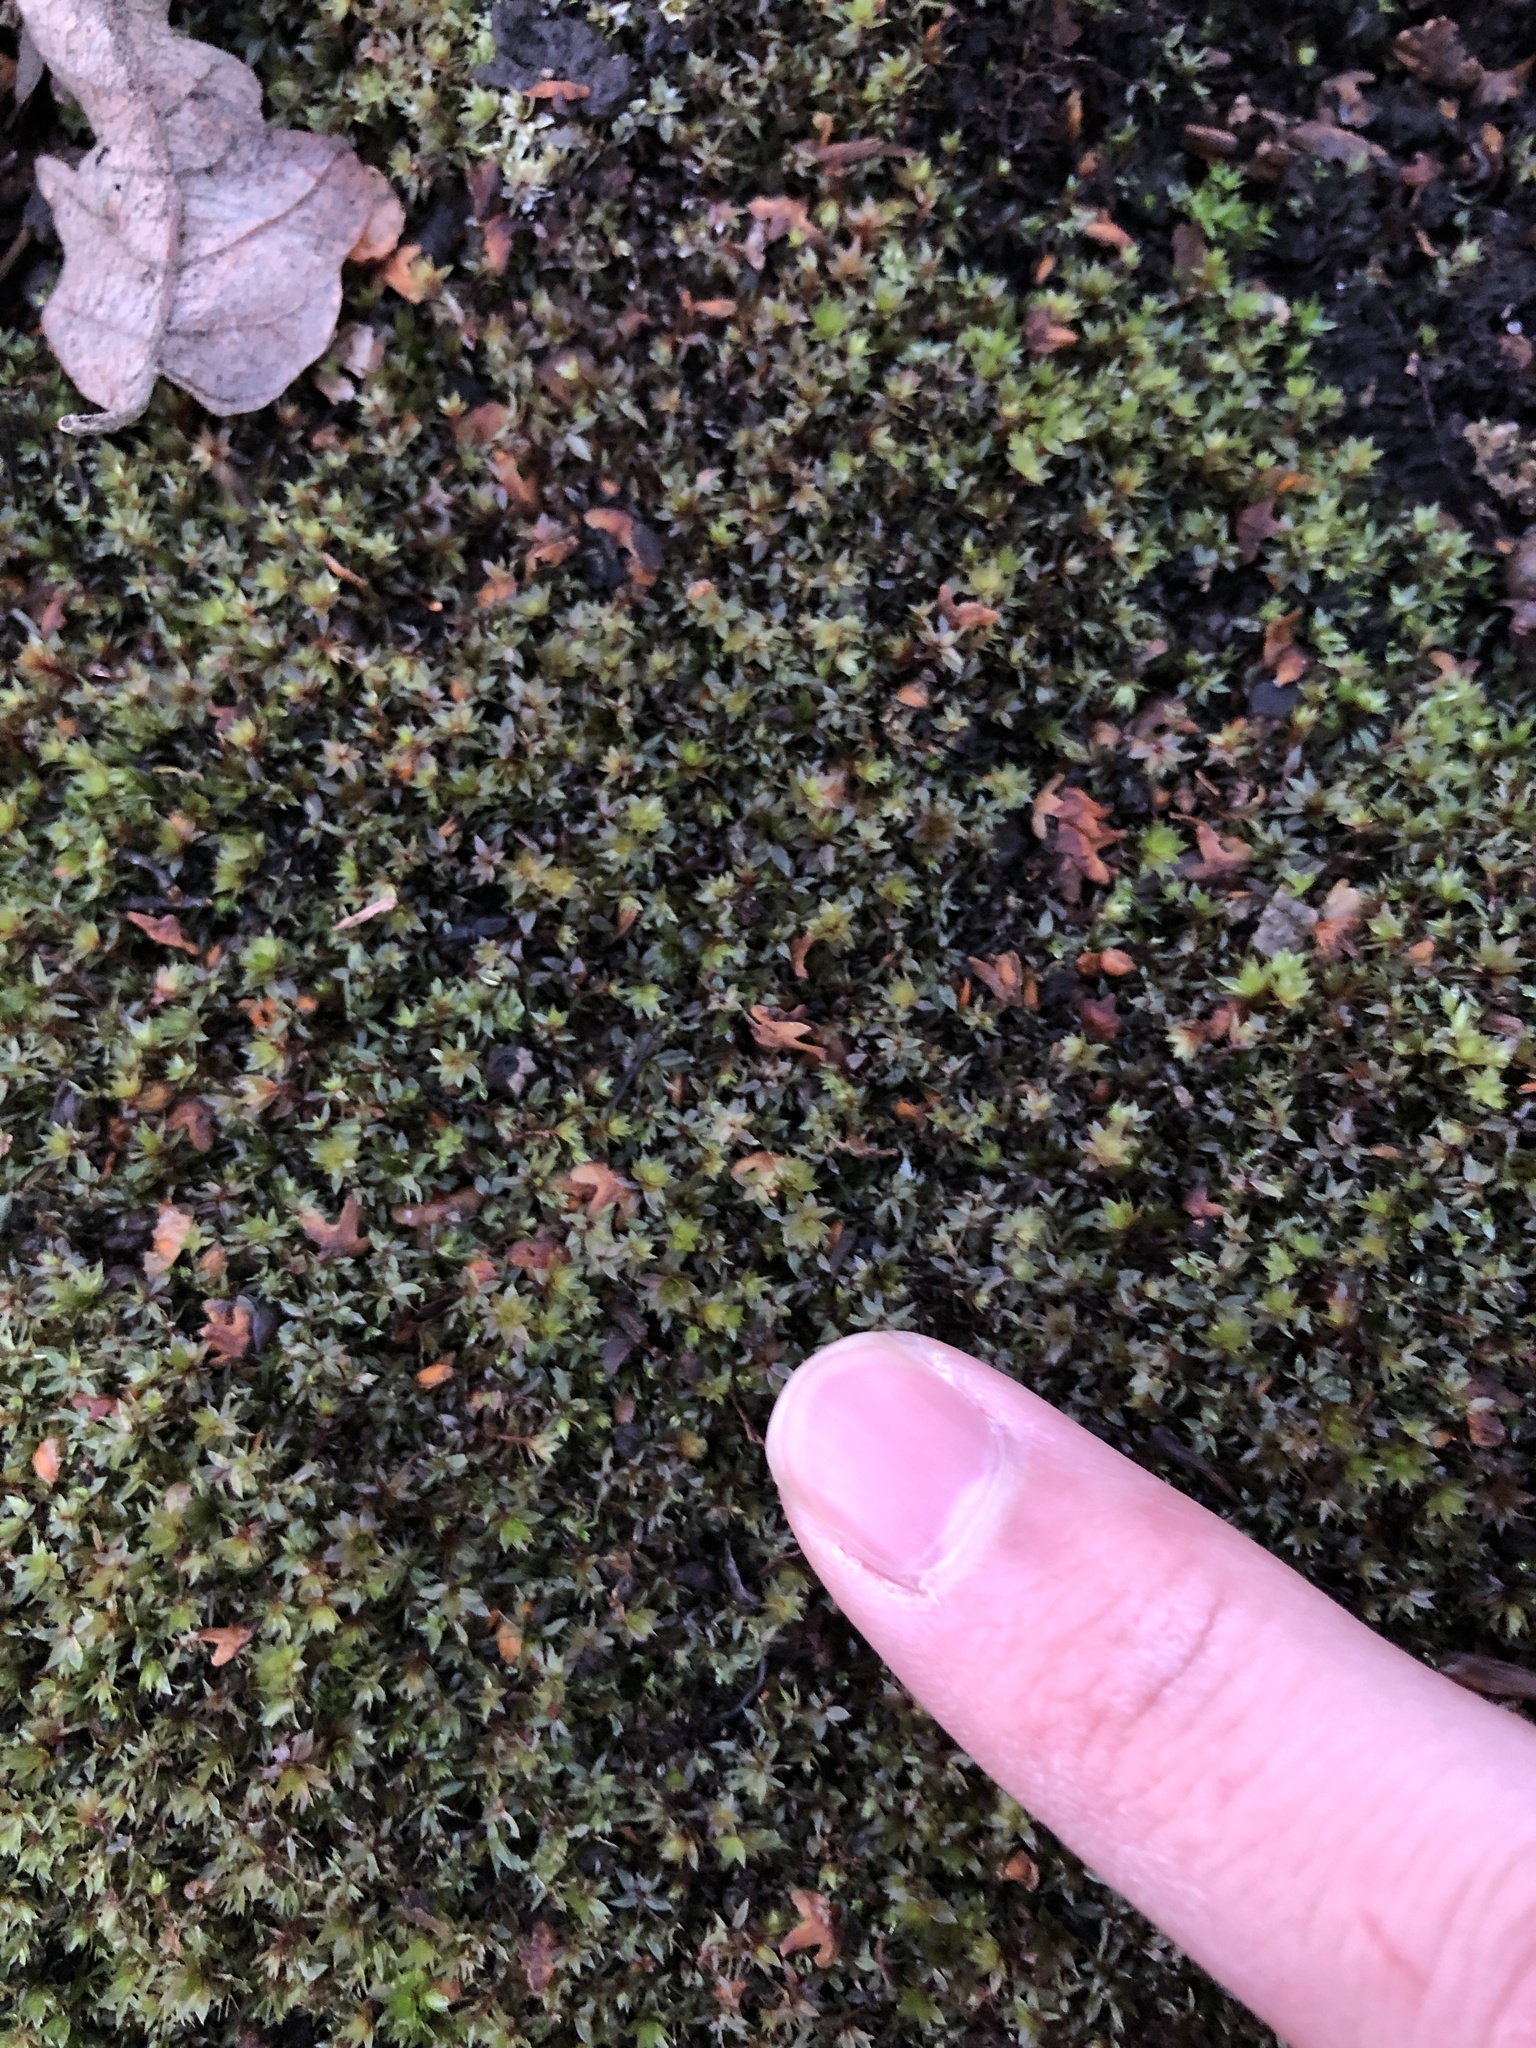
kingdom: Plantae
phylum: Bryophyta
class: Bryopsida
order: Bryales
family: Bryaceae
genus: Ptychostomum
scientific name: Ptychostomum pallens
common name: Pale thread-moss
